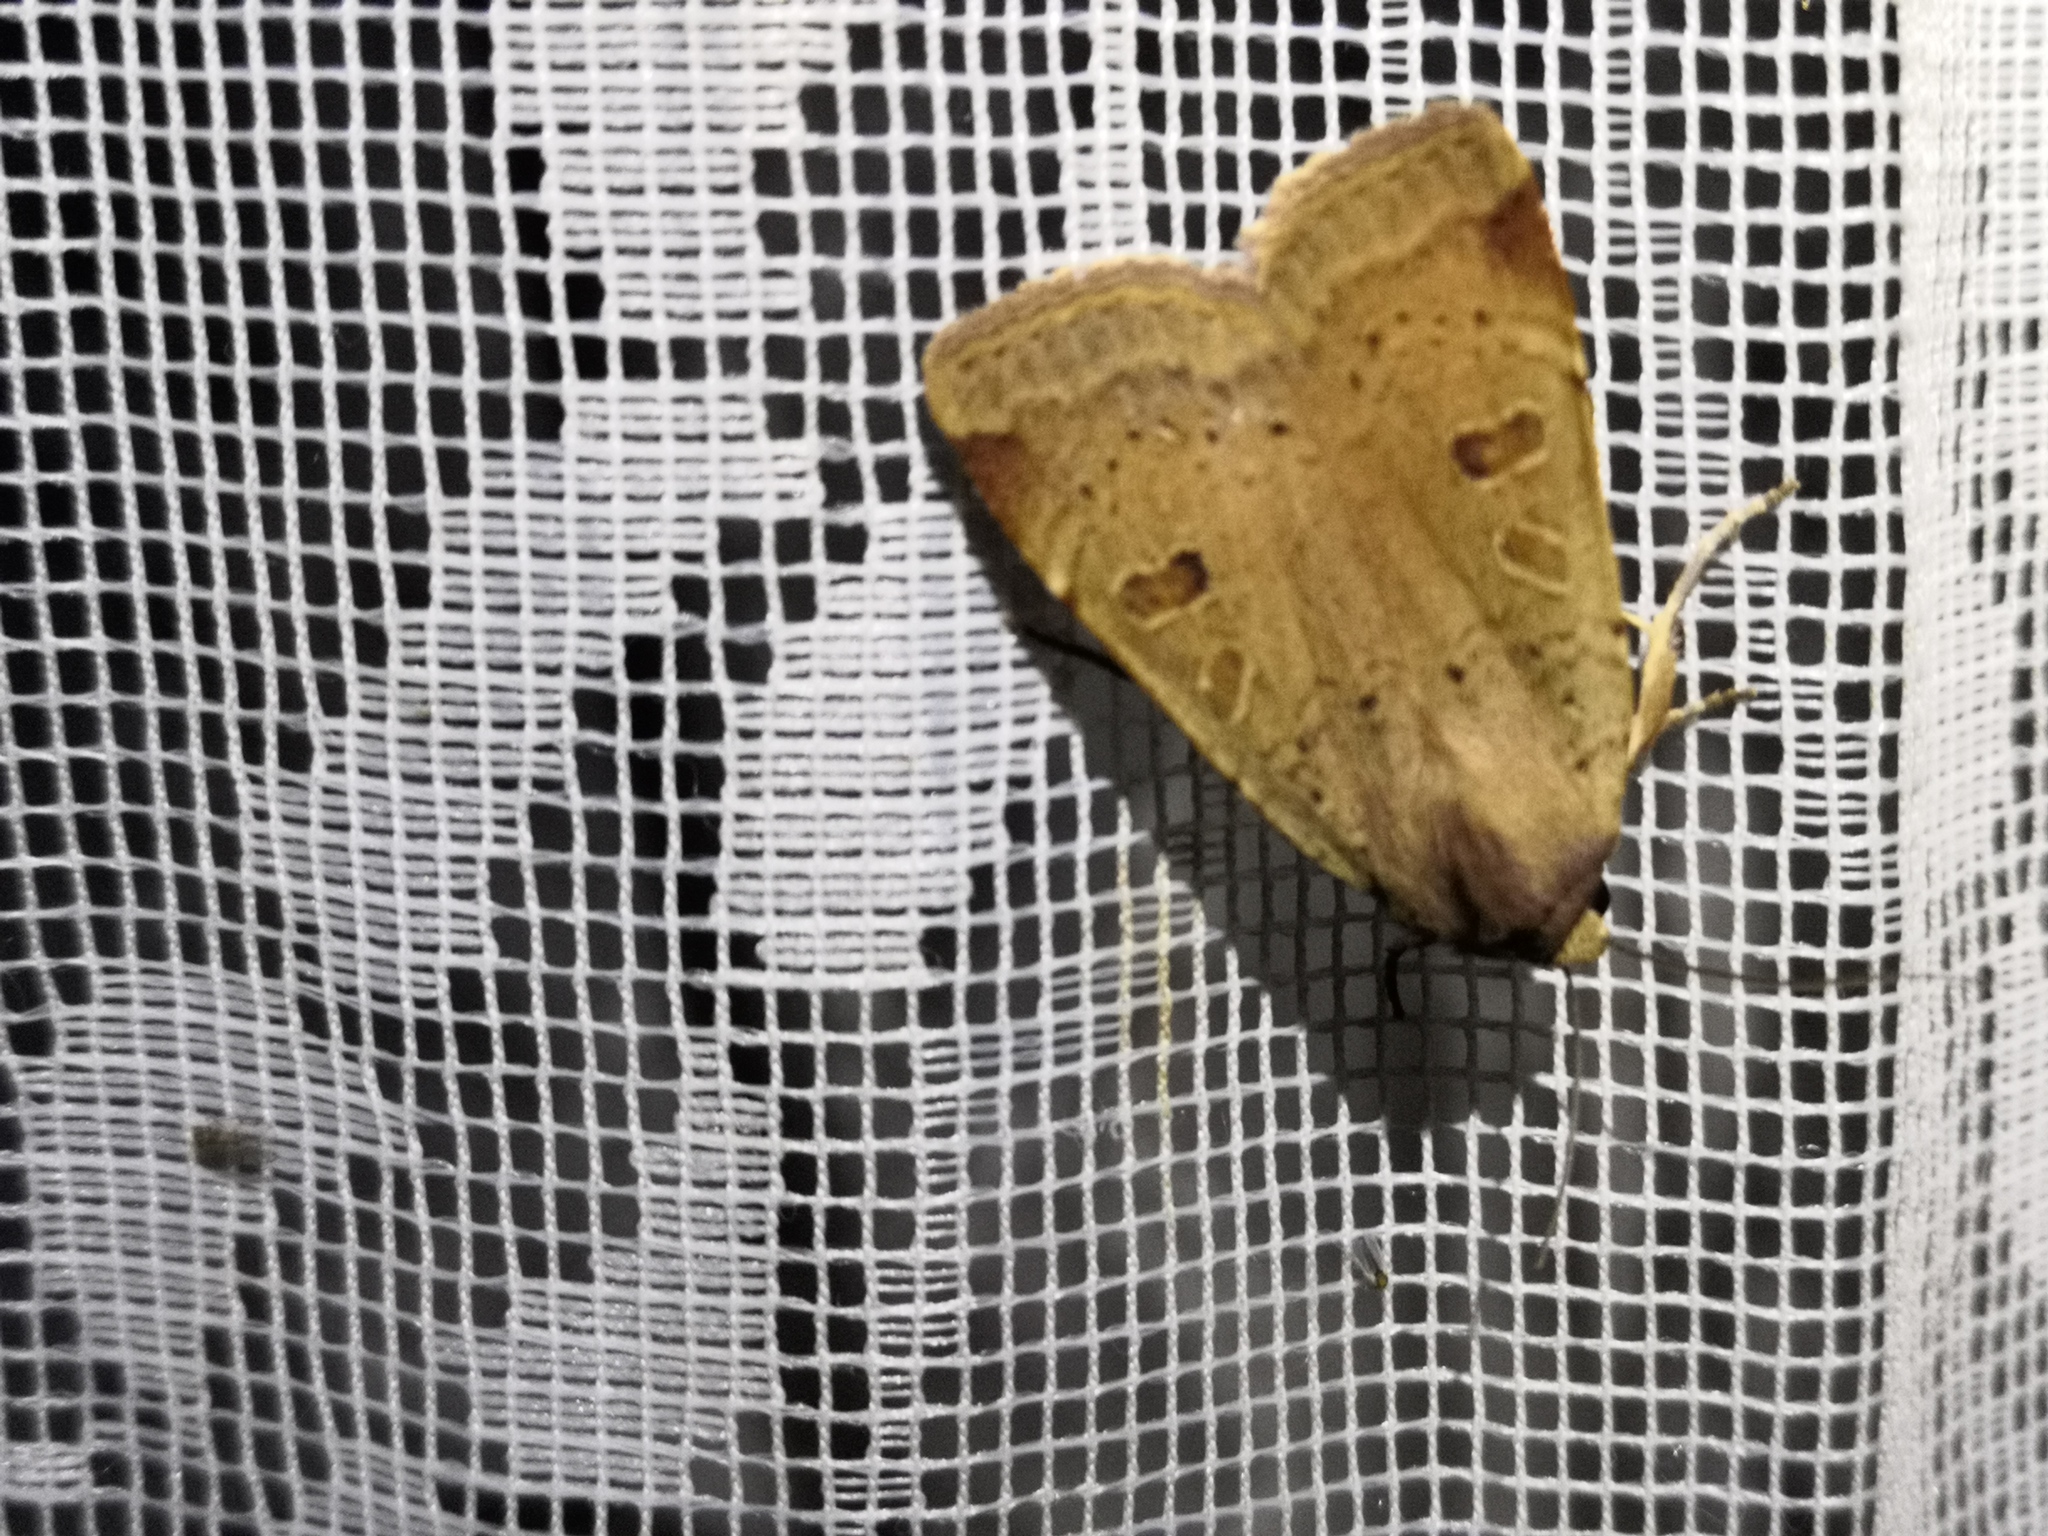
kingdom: Animalia
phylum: Arthropoda
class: Insecta
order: Lepidoptera
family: Noctuidae
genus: Noctua
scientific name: Noctua comes
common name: Lesser yellow underwing
